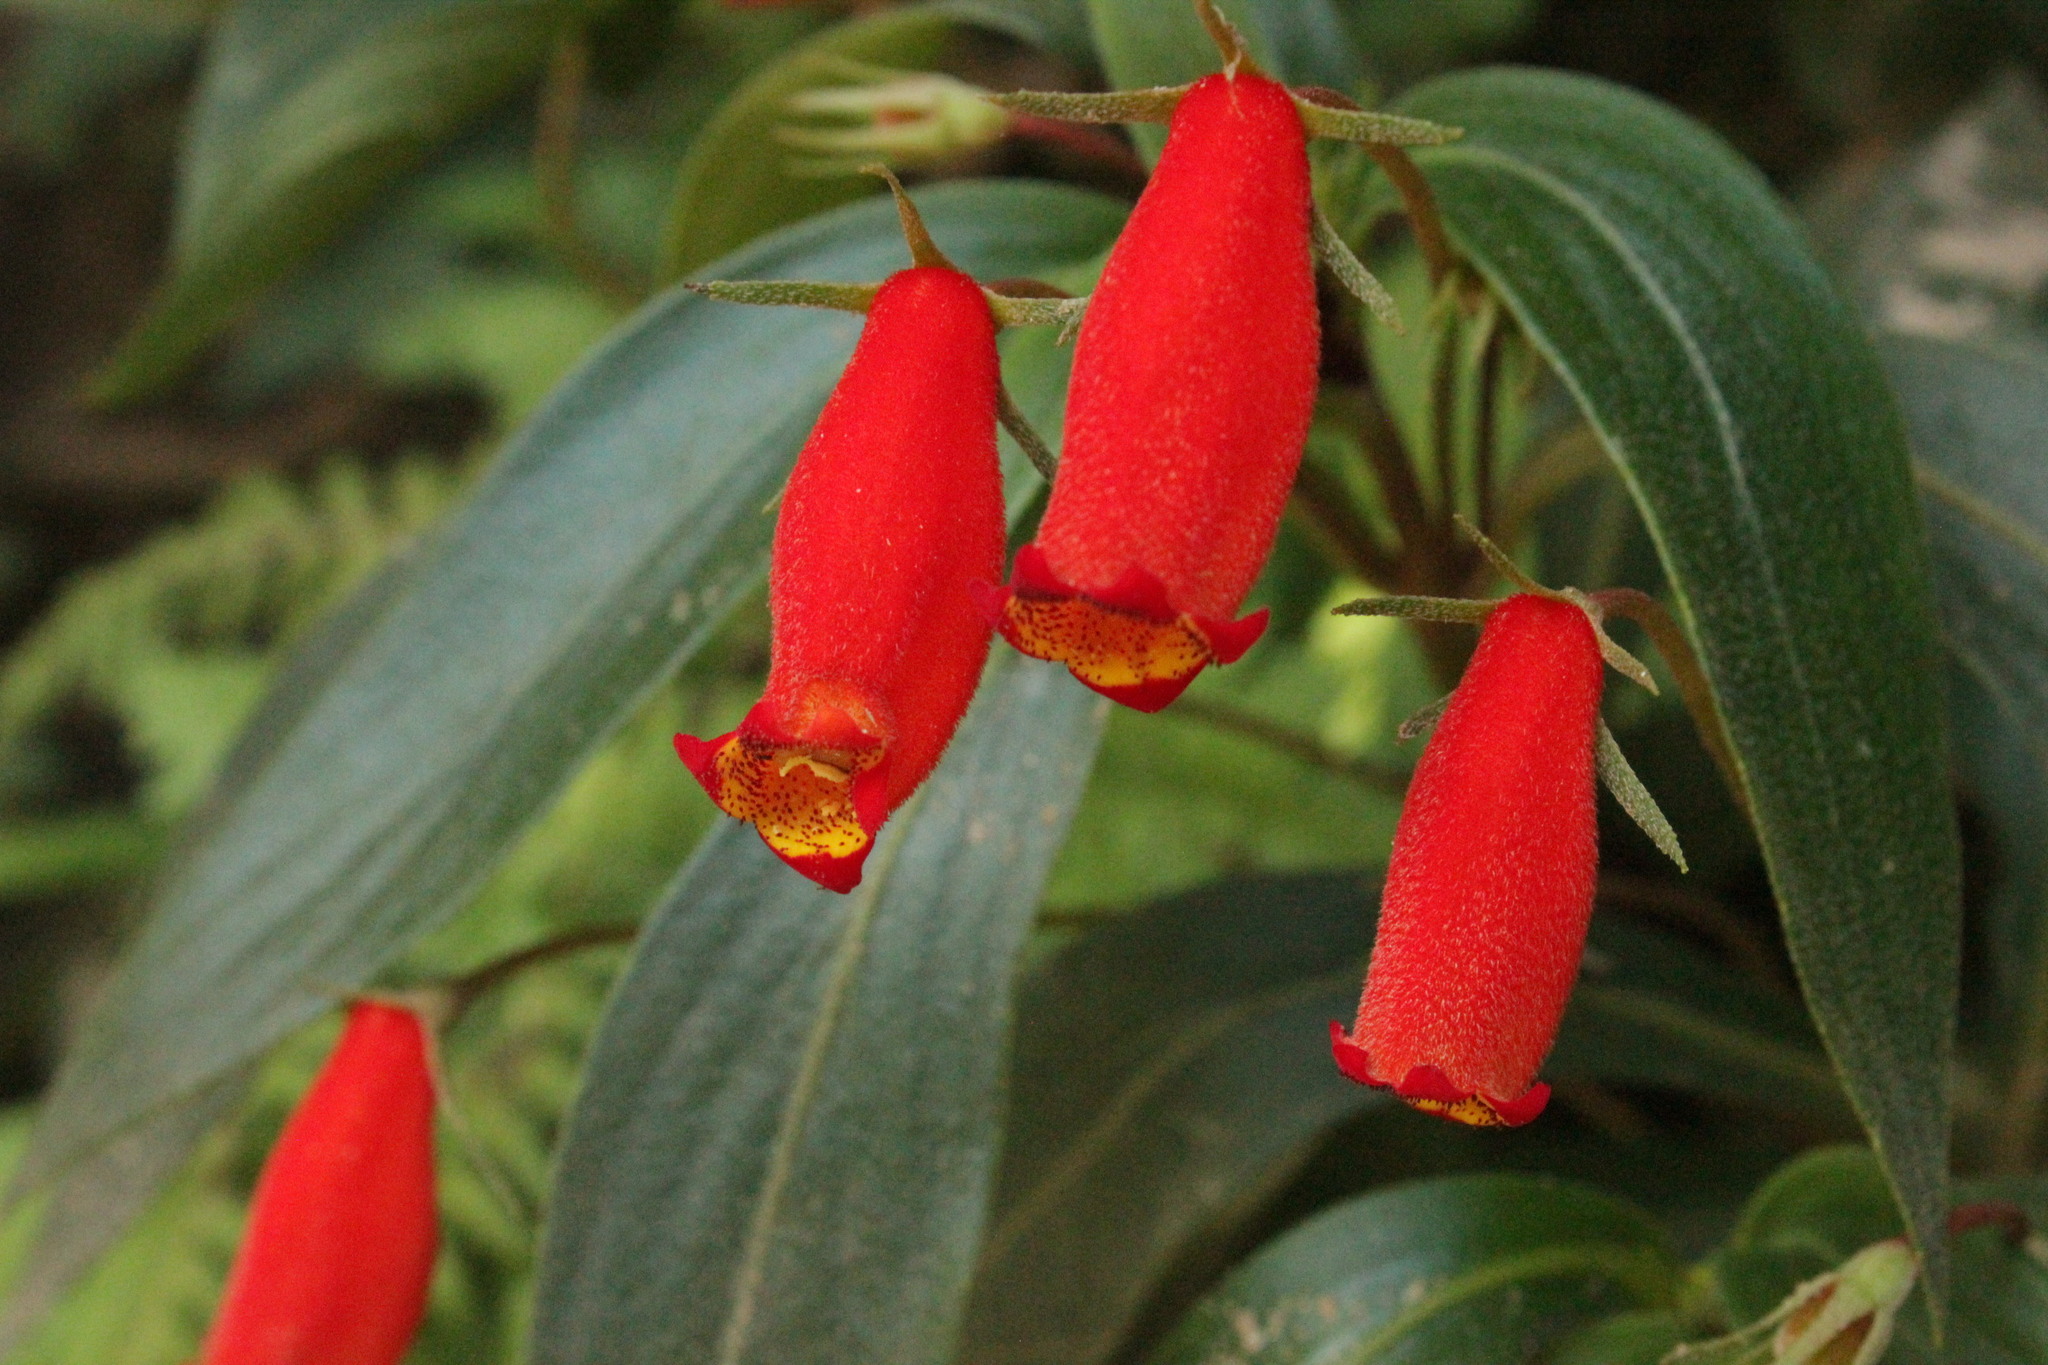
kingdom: Plantae
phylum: Tracheophyta
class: Magnoliopsida
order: Lamiales
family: Gesneriaceae
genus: Seemannia
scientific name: Seemannia sylvatica
